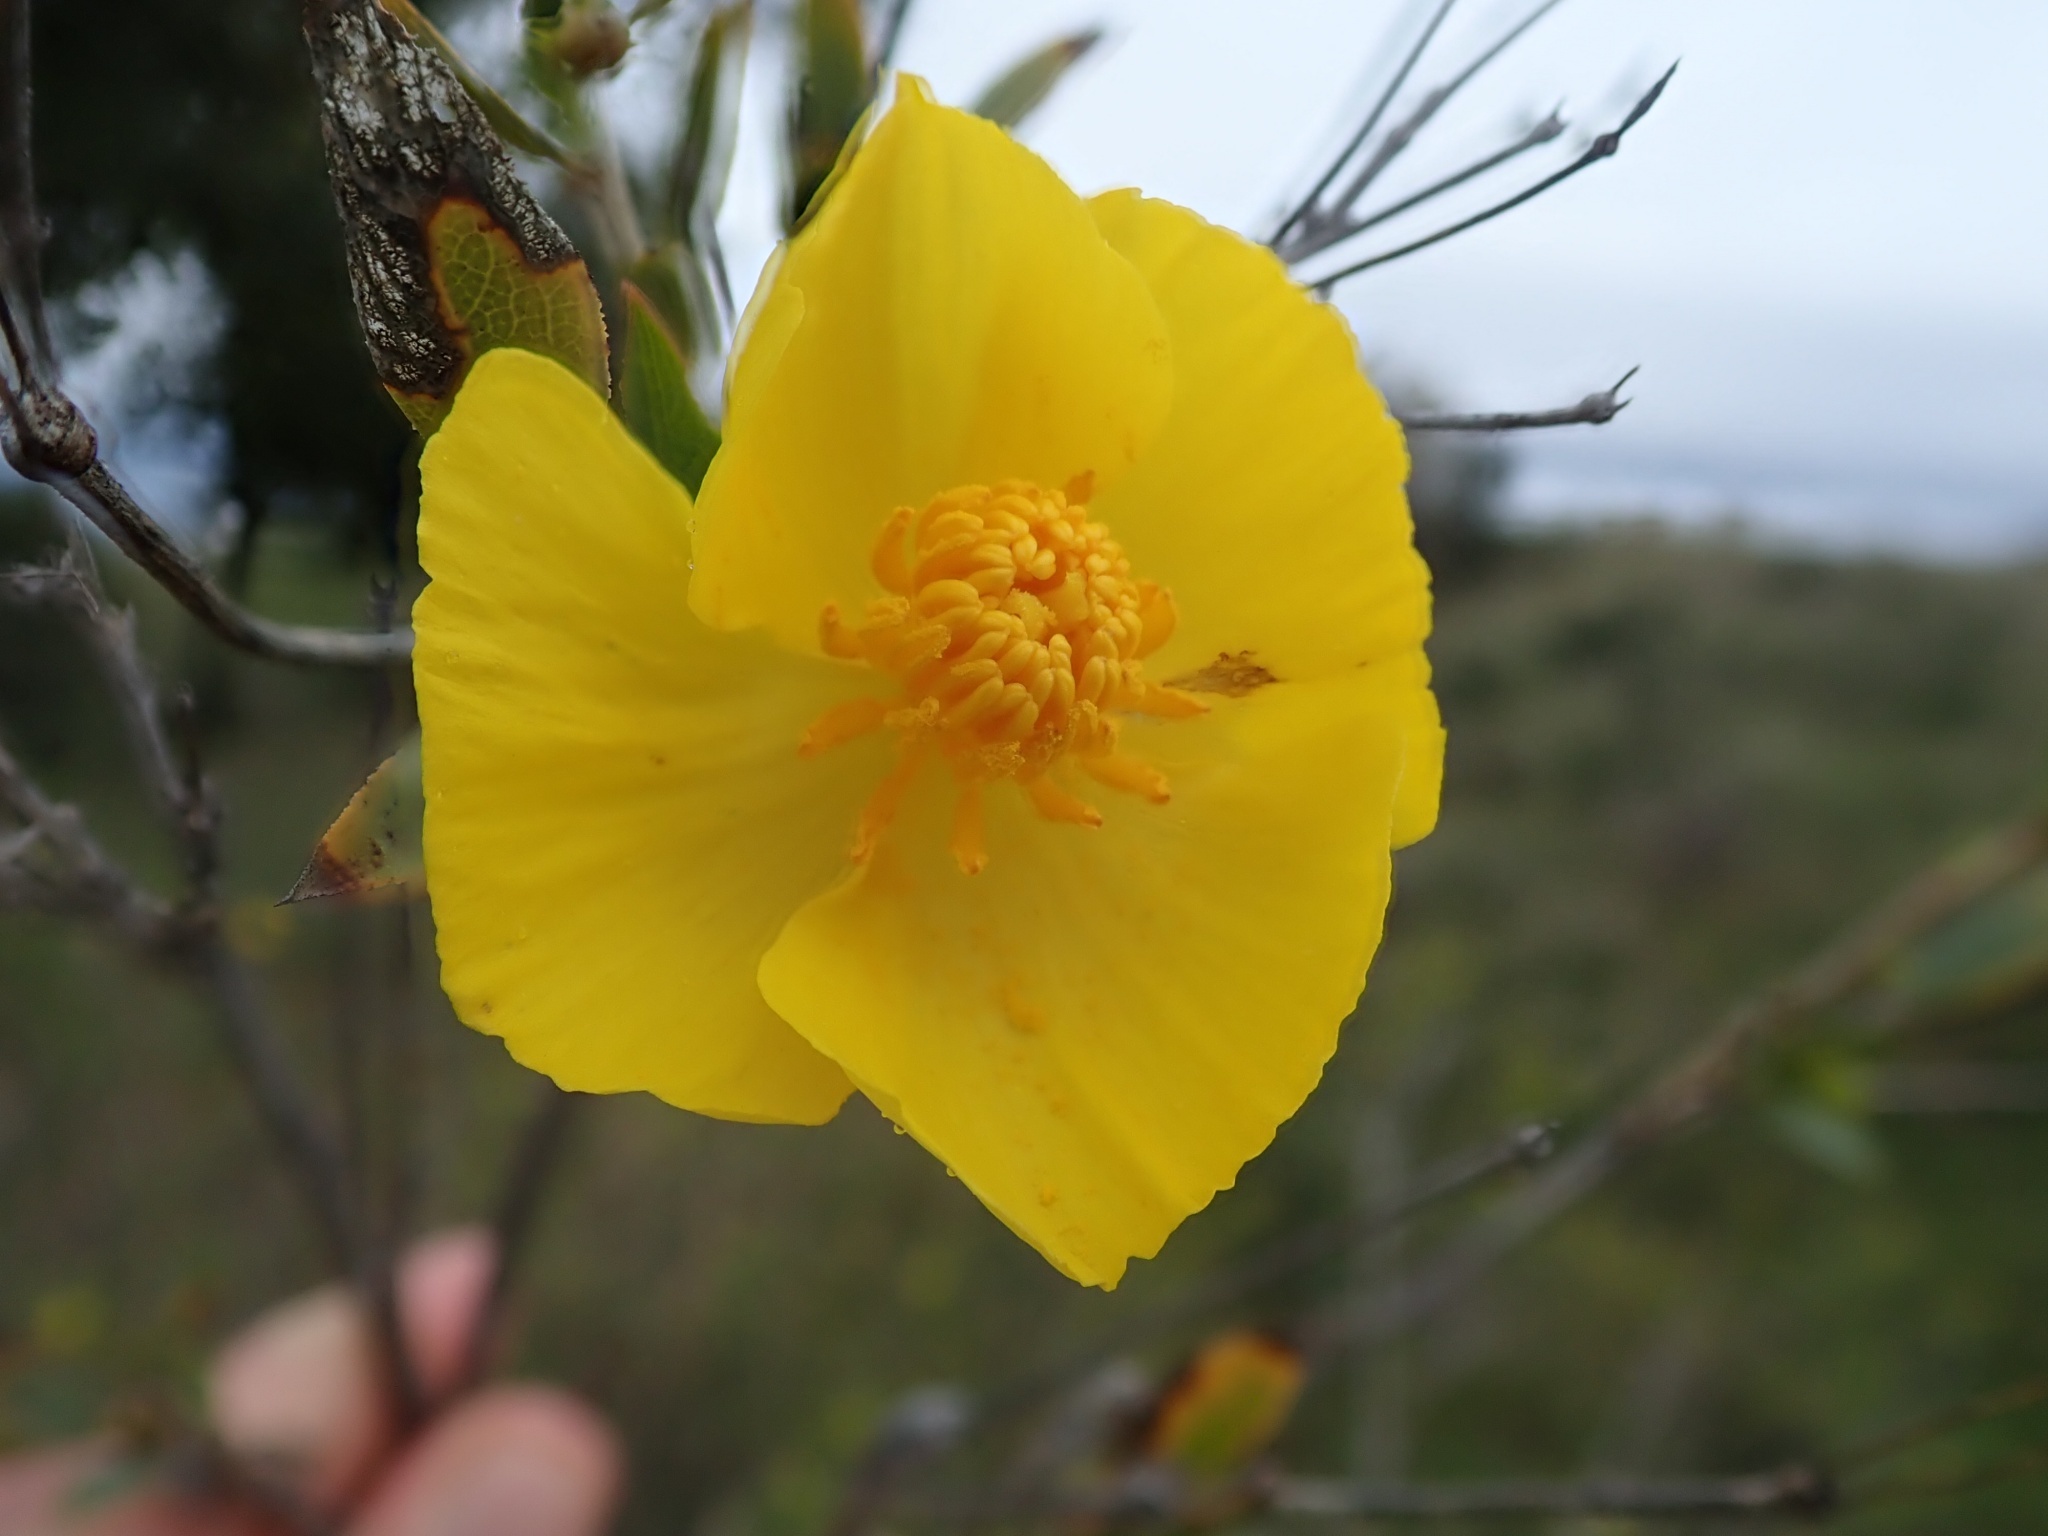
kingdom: Plantae
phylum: Tracheophyta
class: Magnoliopsida
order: Ranunculales
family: Papaveraceae
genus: Dendromecon
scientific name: Dendromecon rigida
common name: Tree poppy
